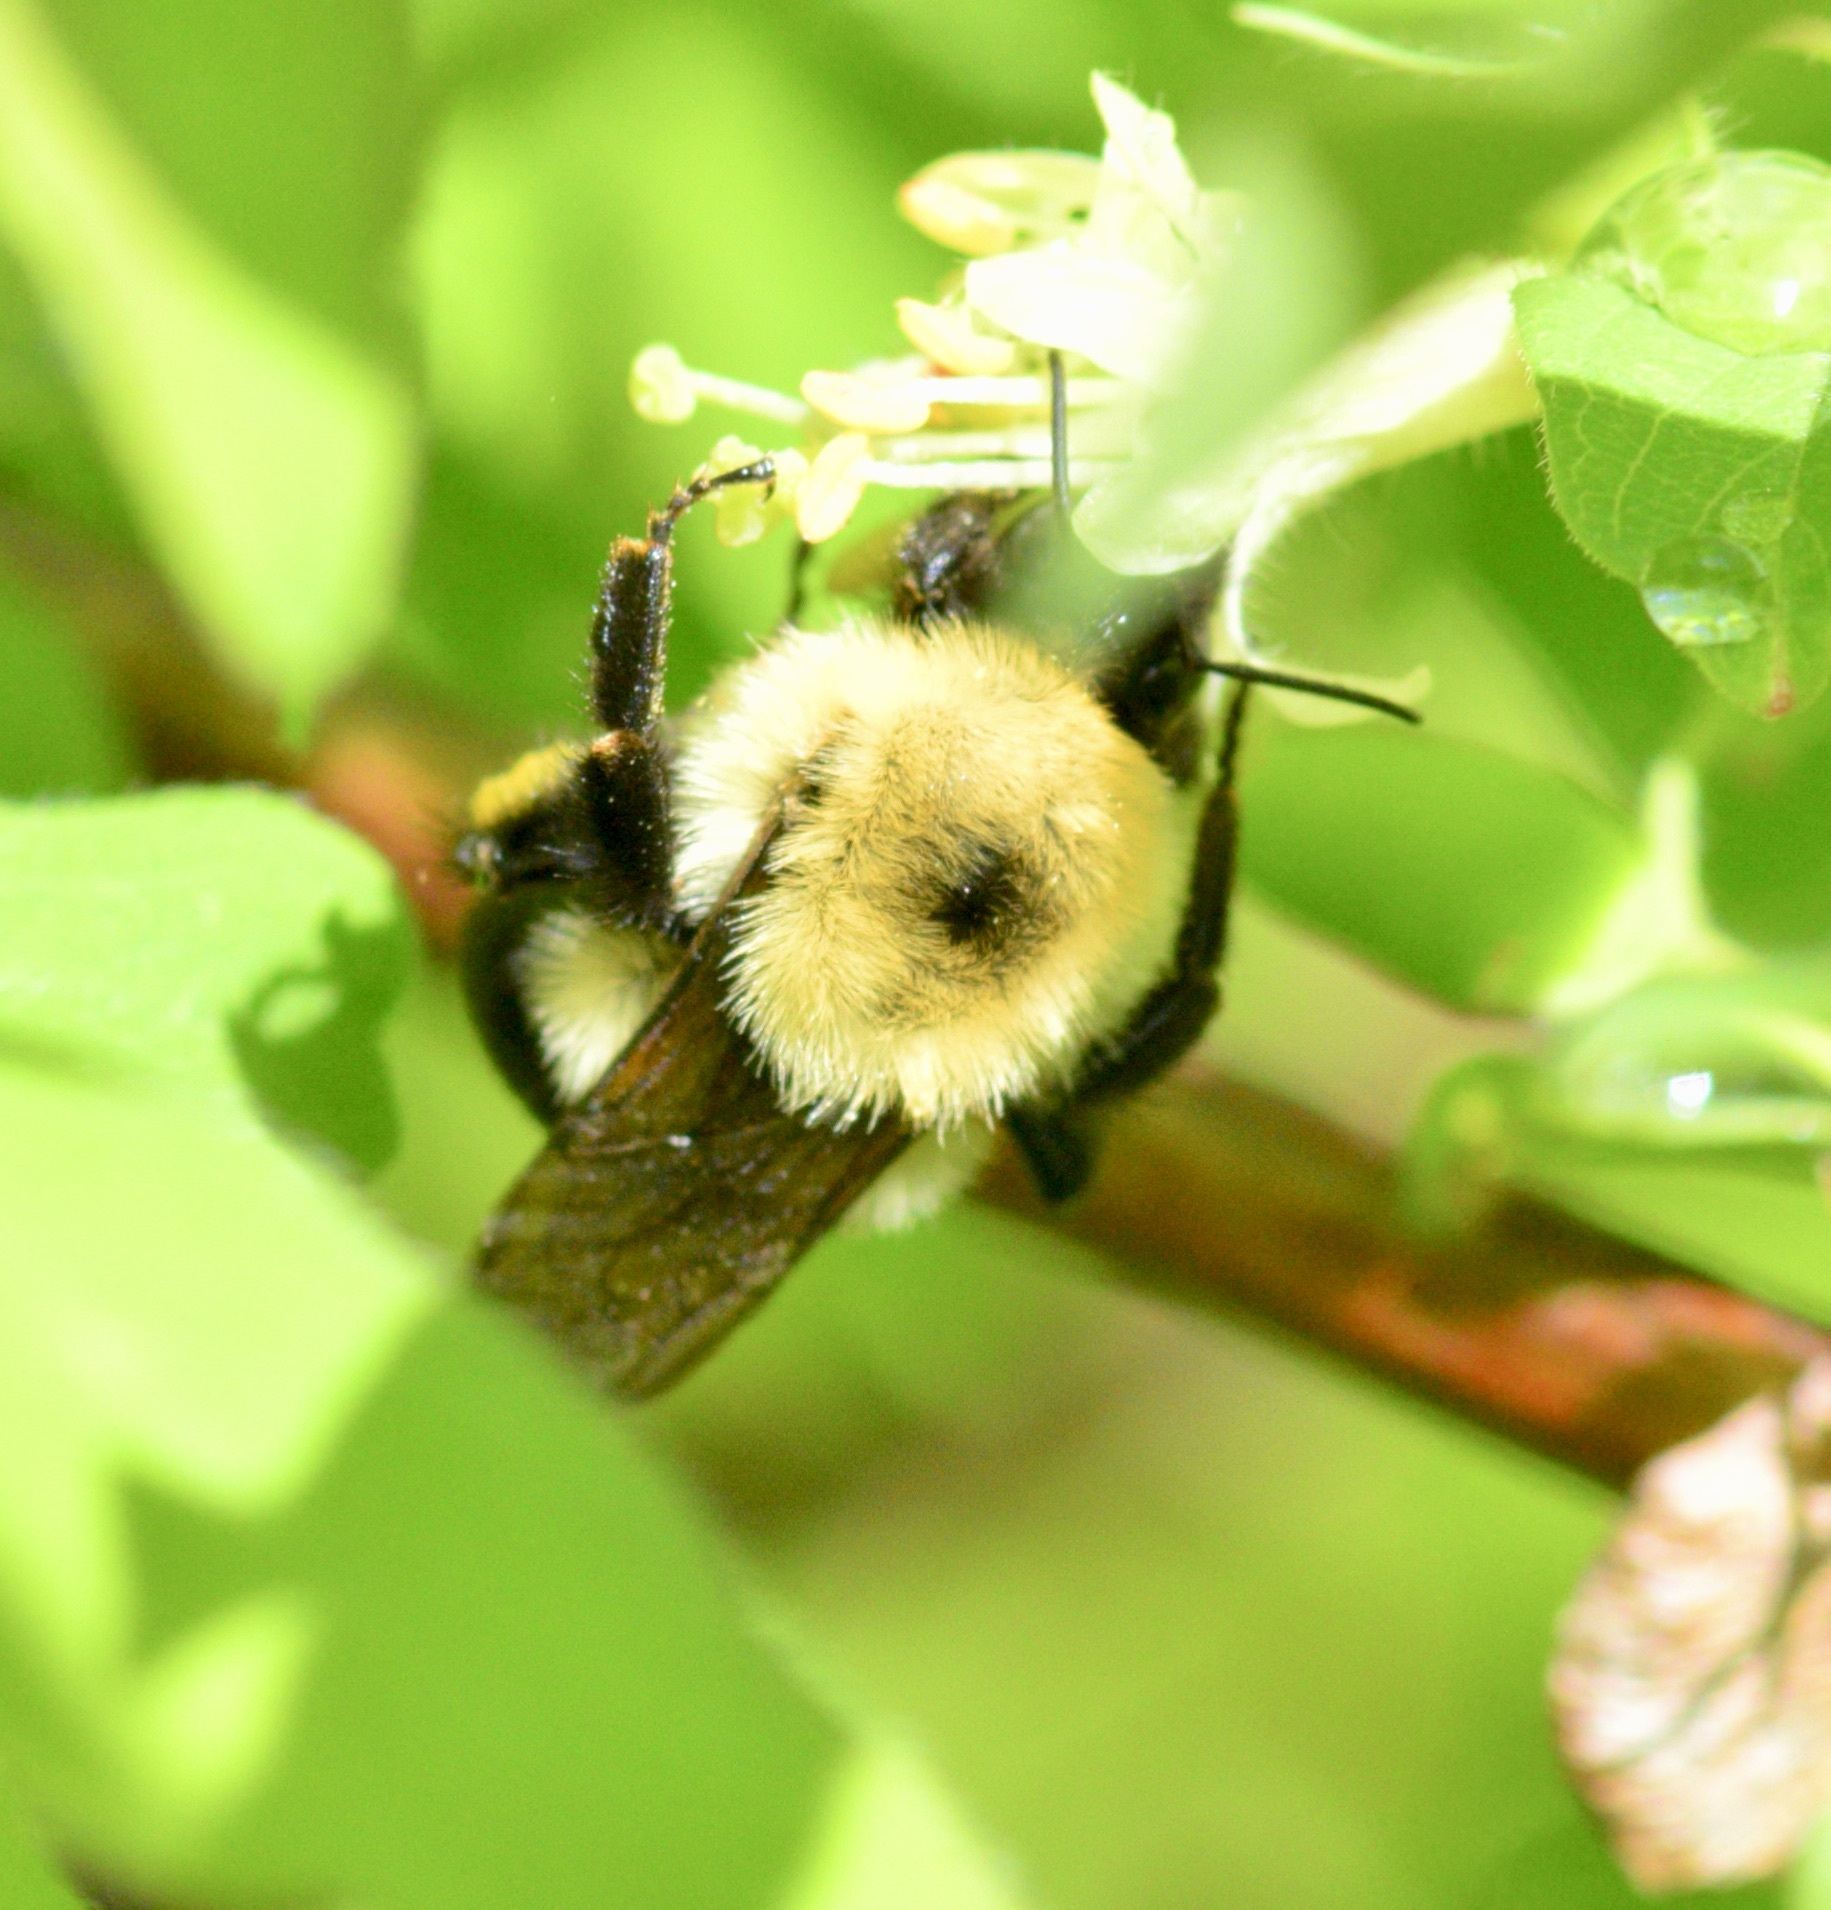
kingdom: Animalia
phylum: Arthropoda
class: Insecta
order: Hymenoptera
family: Apidae
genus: Bombus
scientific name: Bombus bimaculatus
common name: Two-spotted bumble bee
